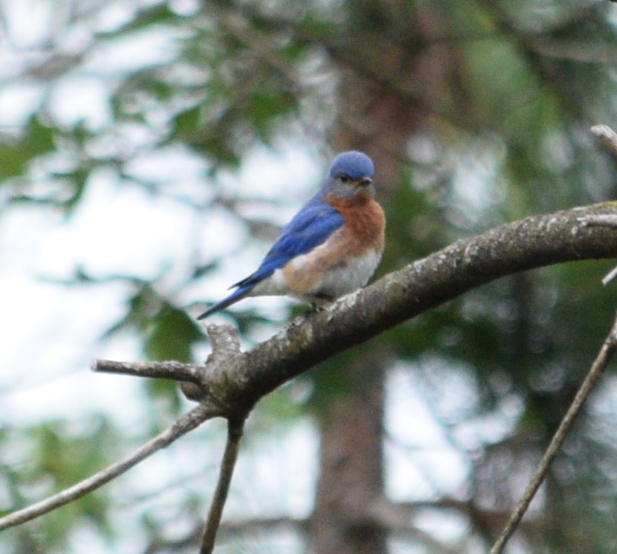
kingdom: Animalia
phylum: Chordata
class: Aves
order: Passeriformes
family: Turdidae
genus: Sialia
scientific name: Sialia sialis
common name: Eastern bluebird
